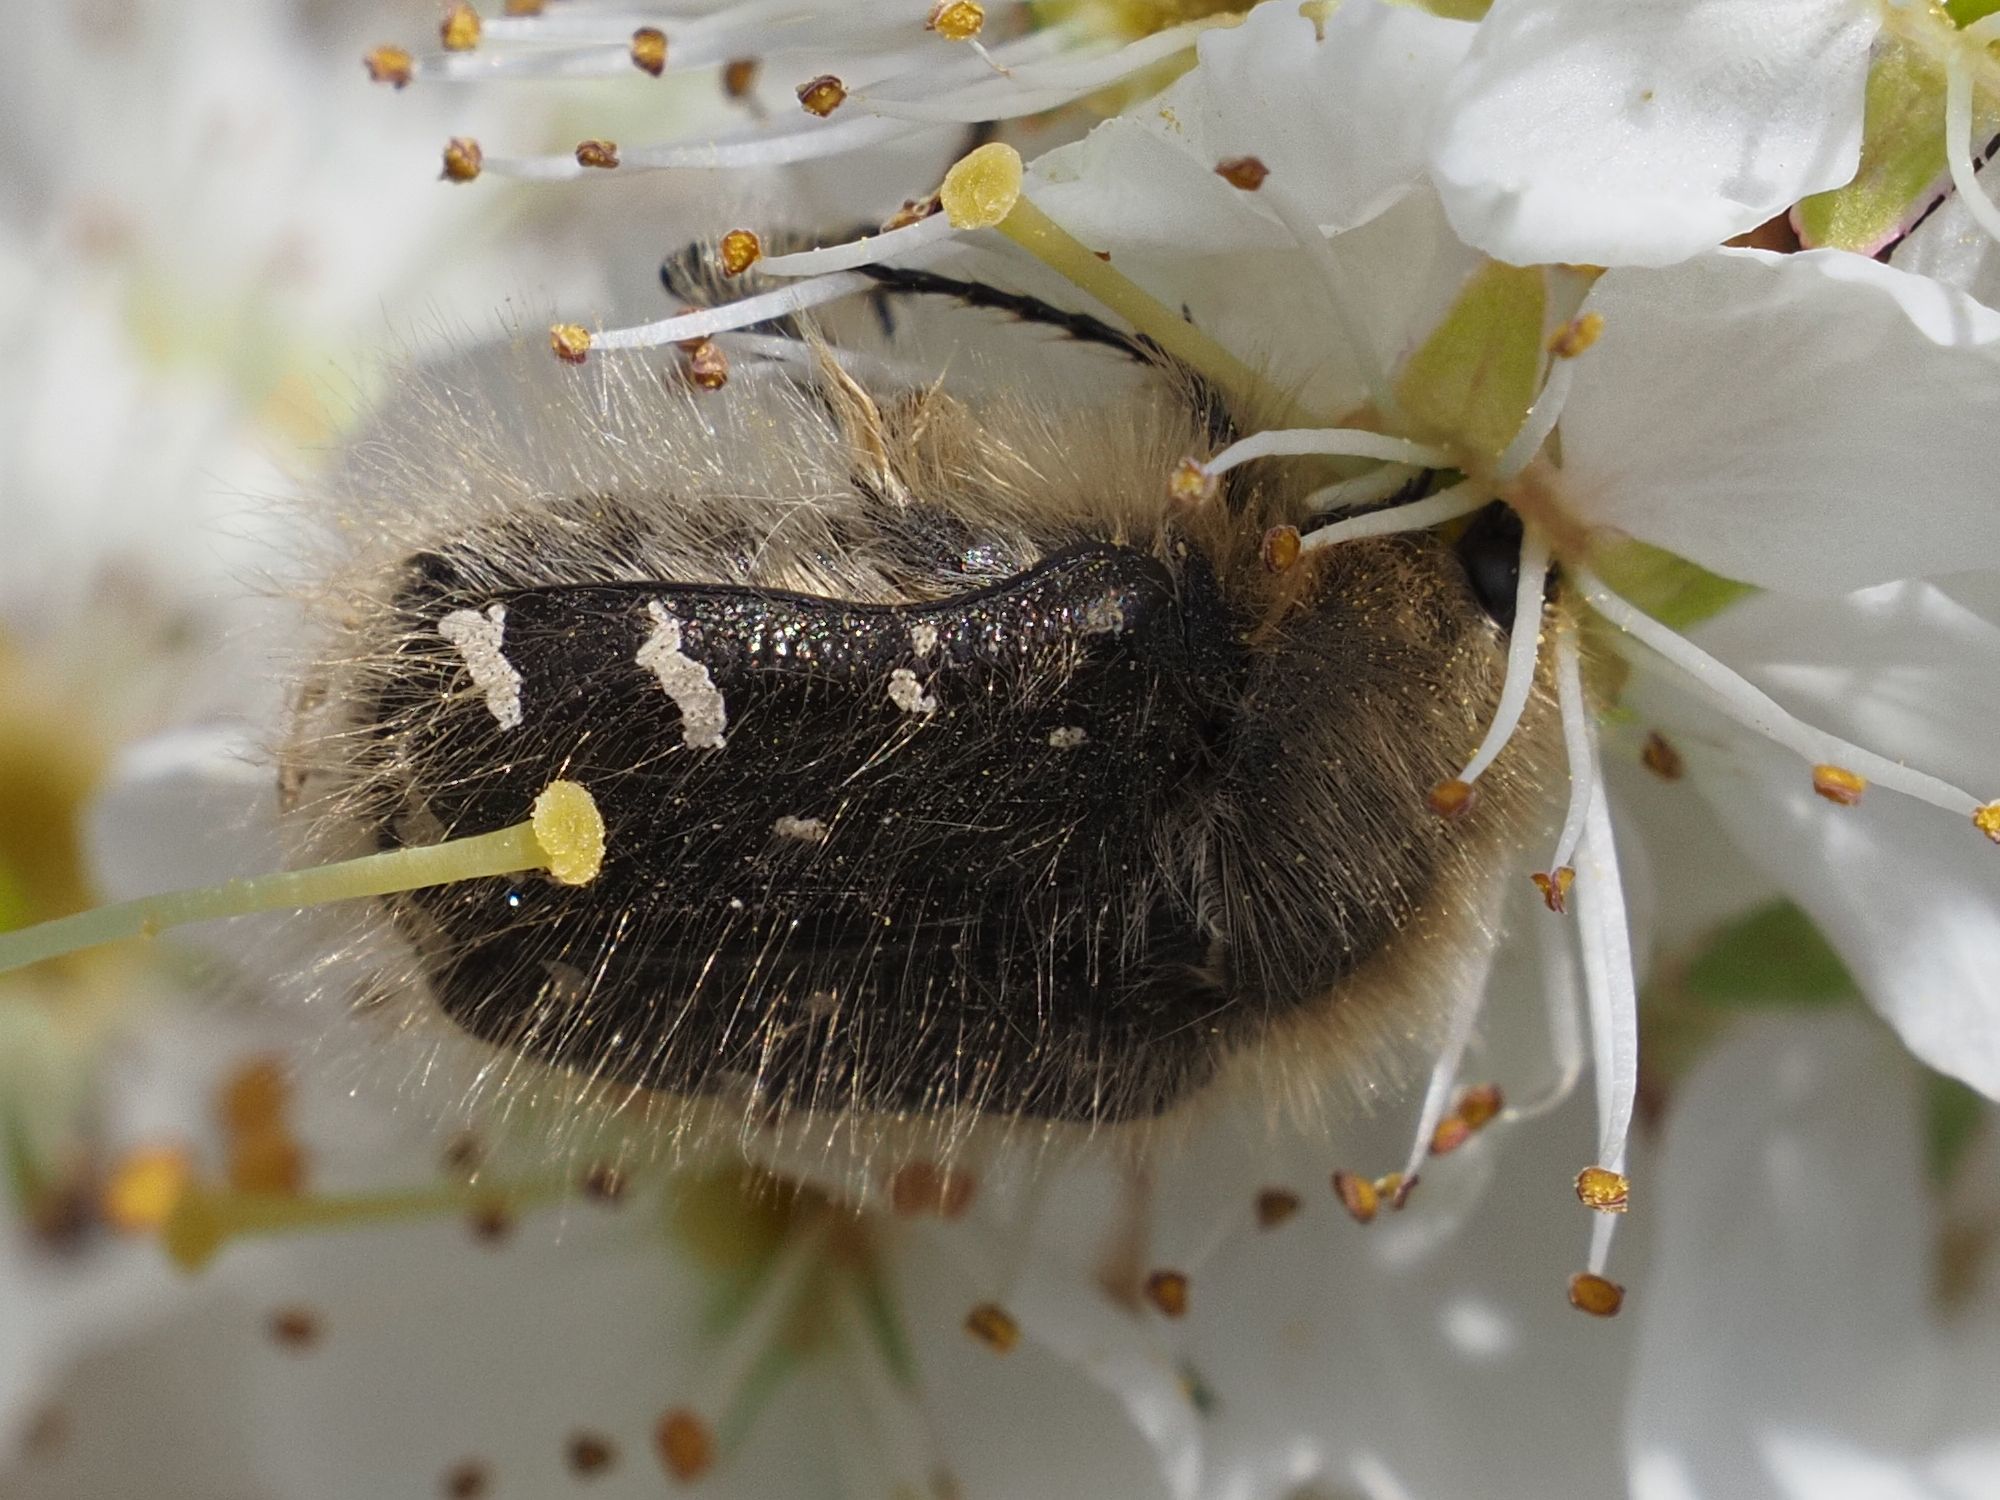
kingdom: Animalia
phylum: Arthropoda
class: Insecta
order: Coleoptera
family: Scarabaeidae
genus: Tropinota
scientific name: Tropinota hirta
